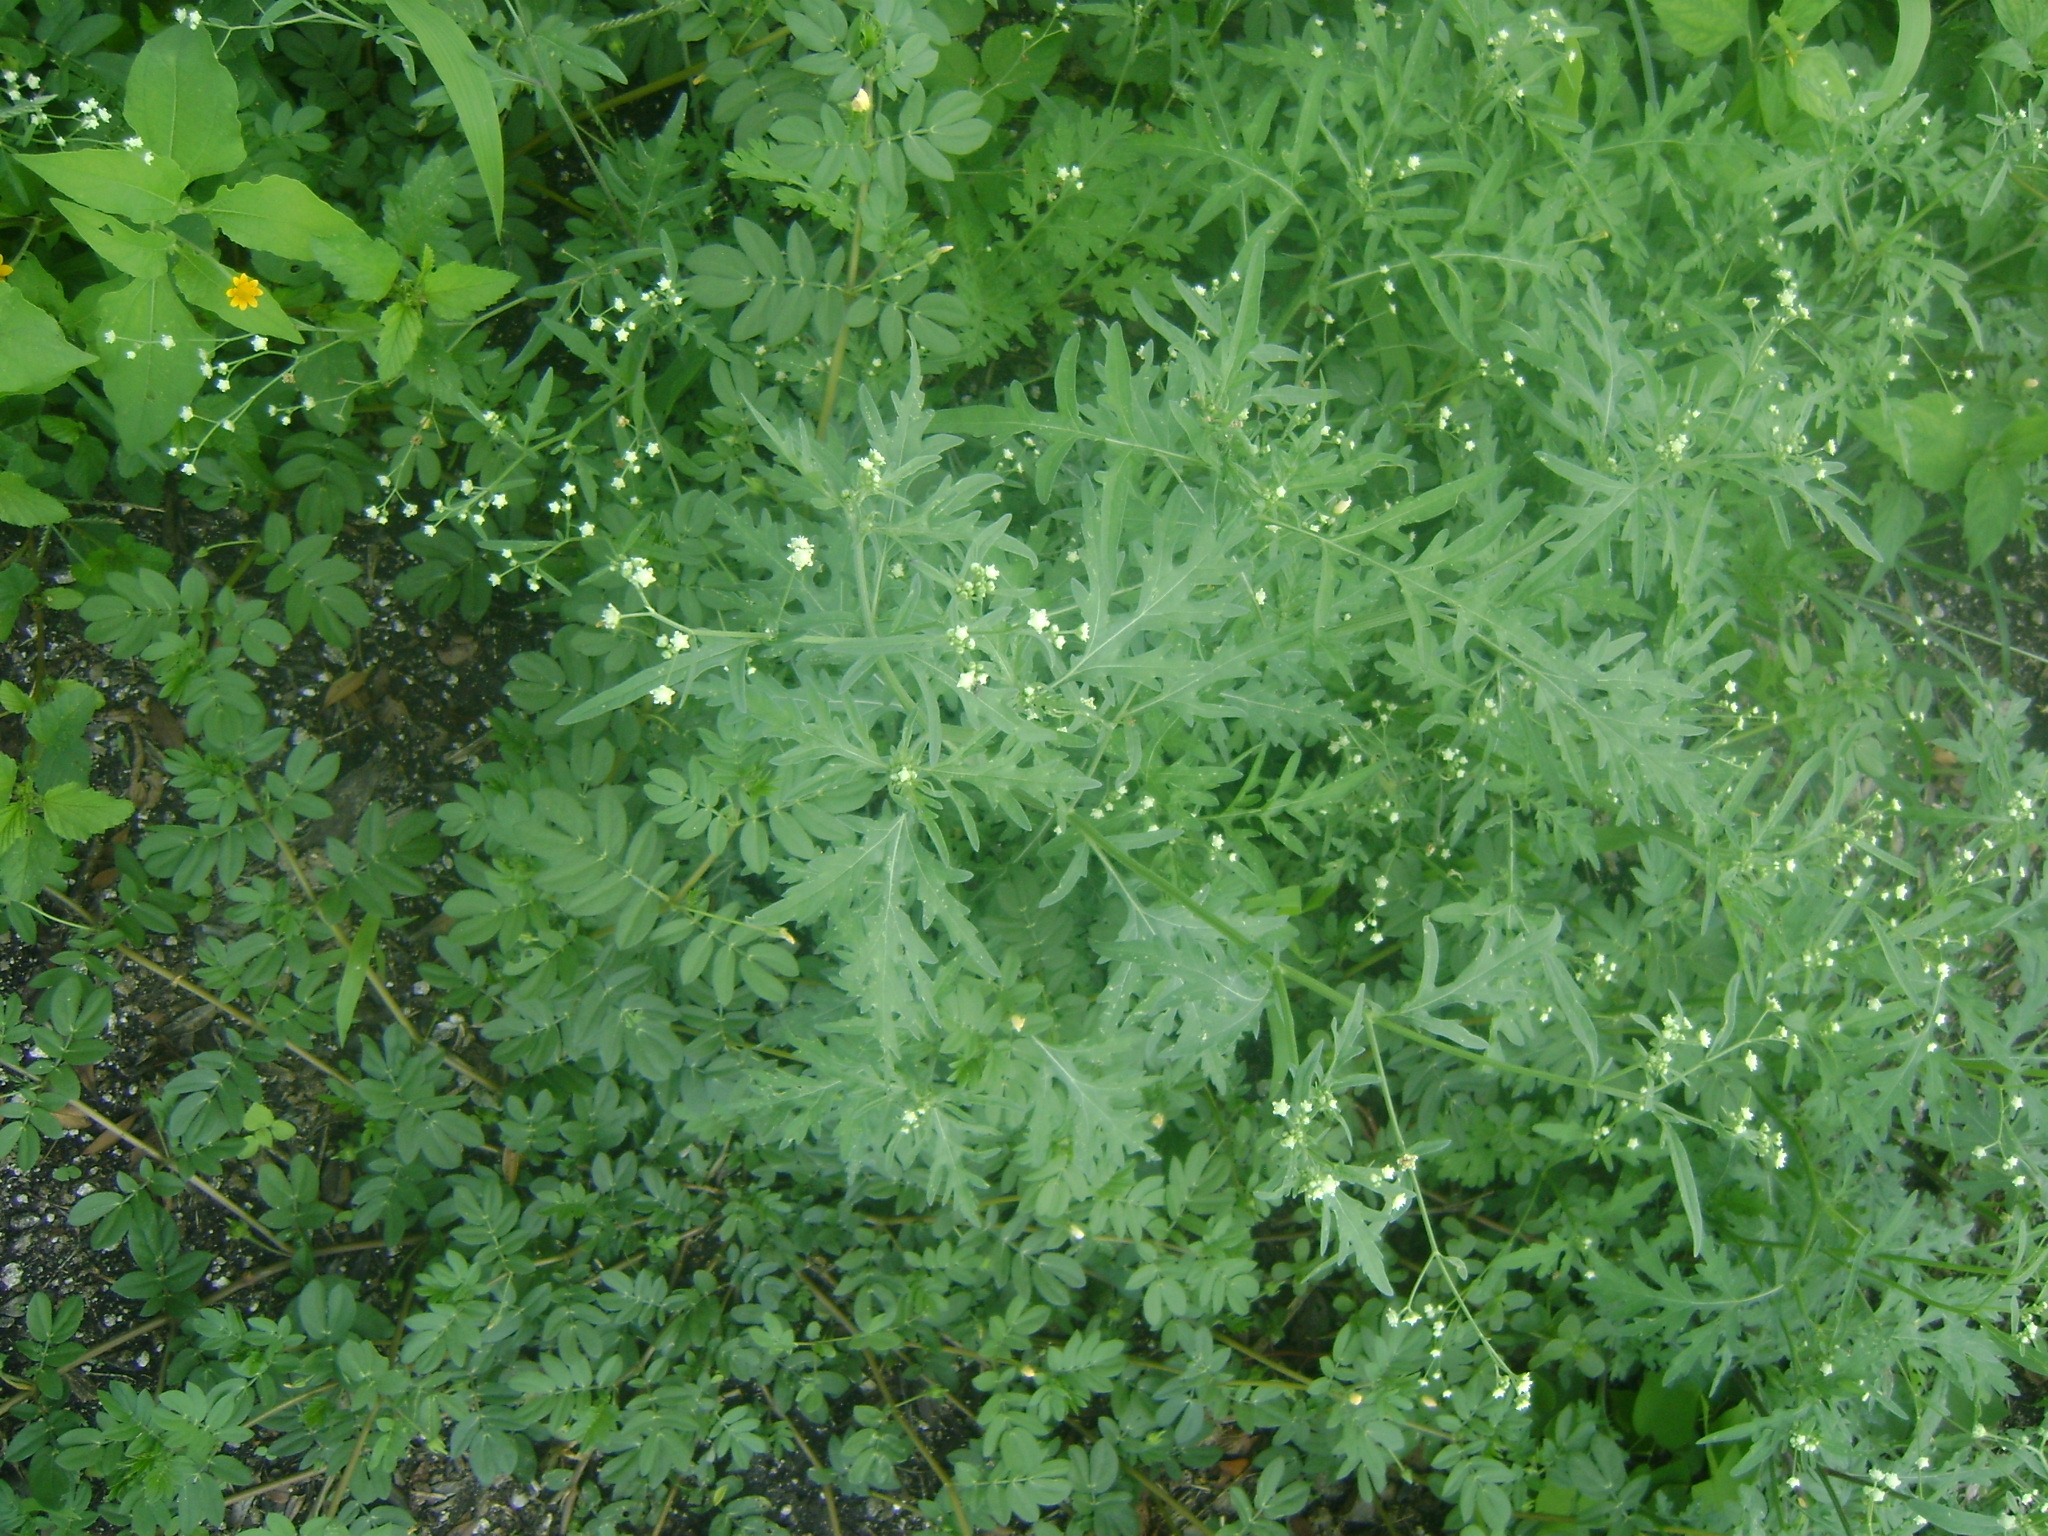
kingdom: Plantae
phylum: Tracheophyta
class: Magnoliopsida
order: Asterales
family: Asteraceae
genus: Parthenium
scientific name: Parthenium hysterophorus
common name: Santa maria feverfew
